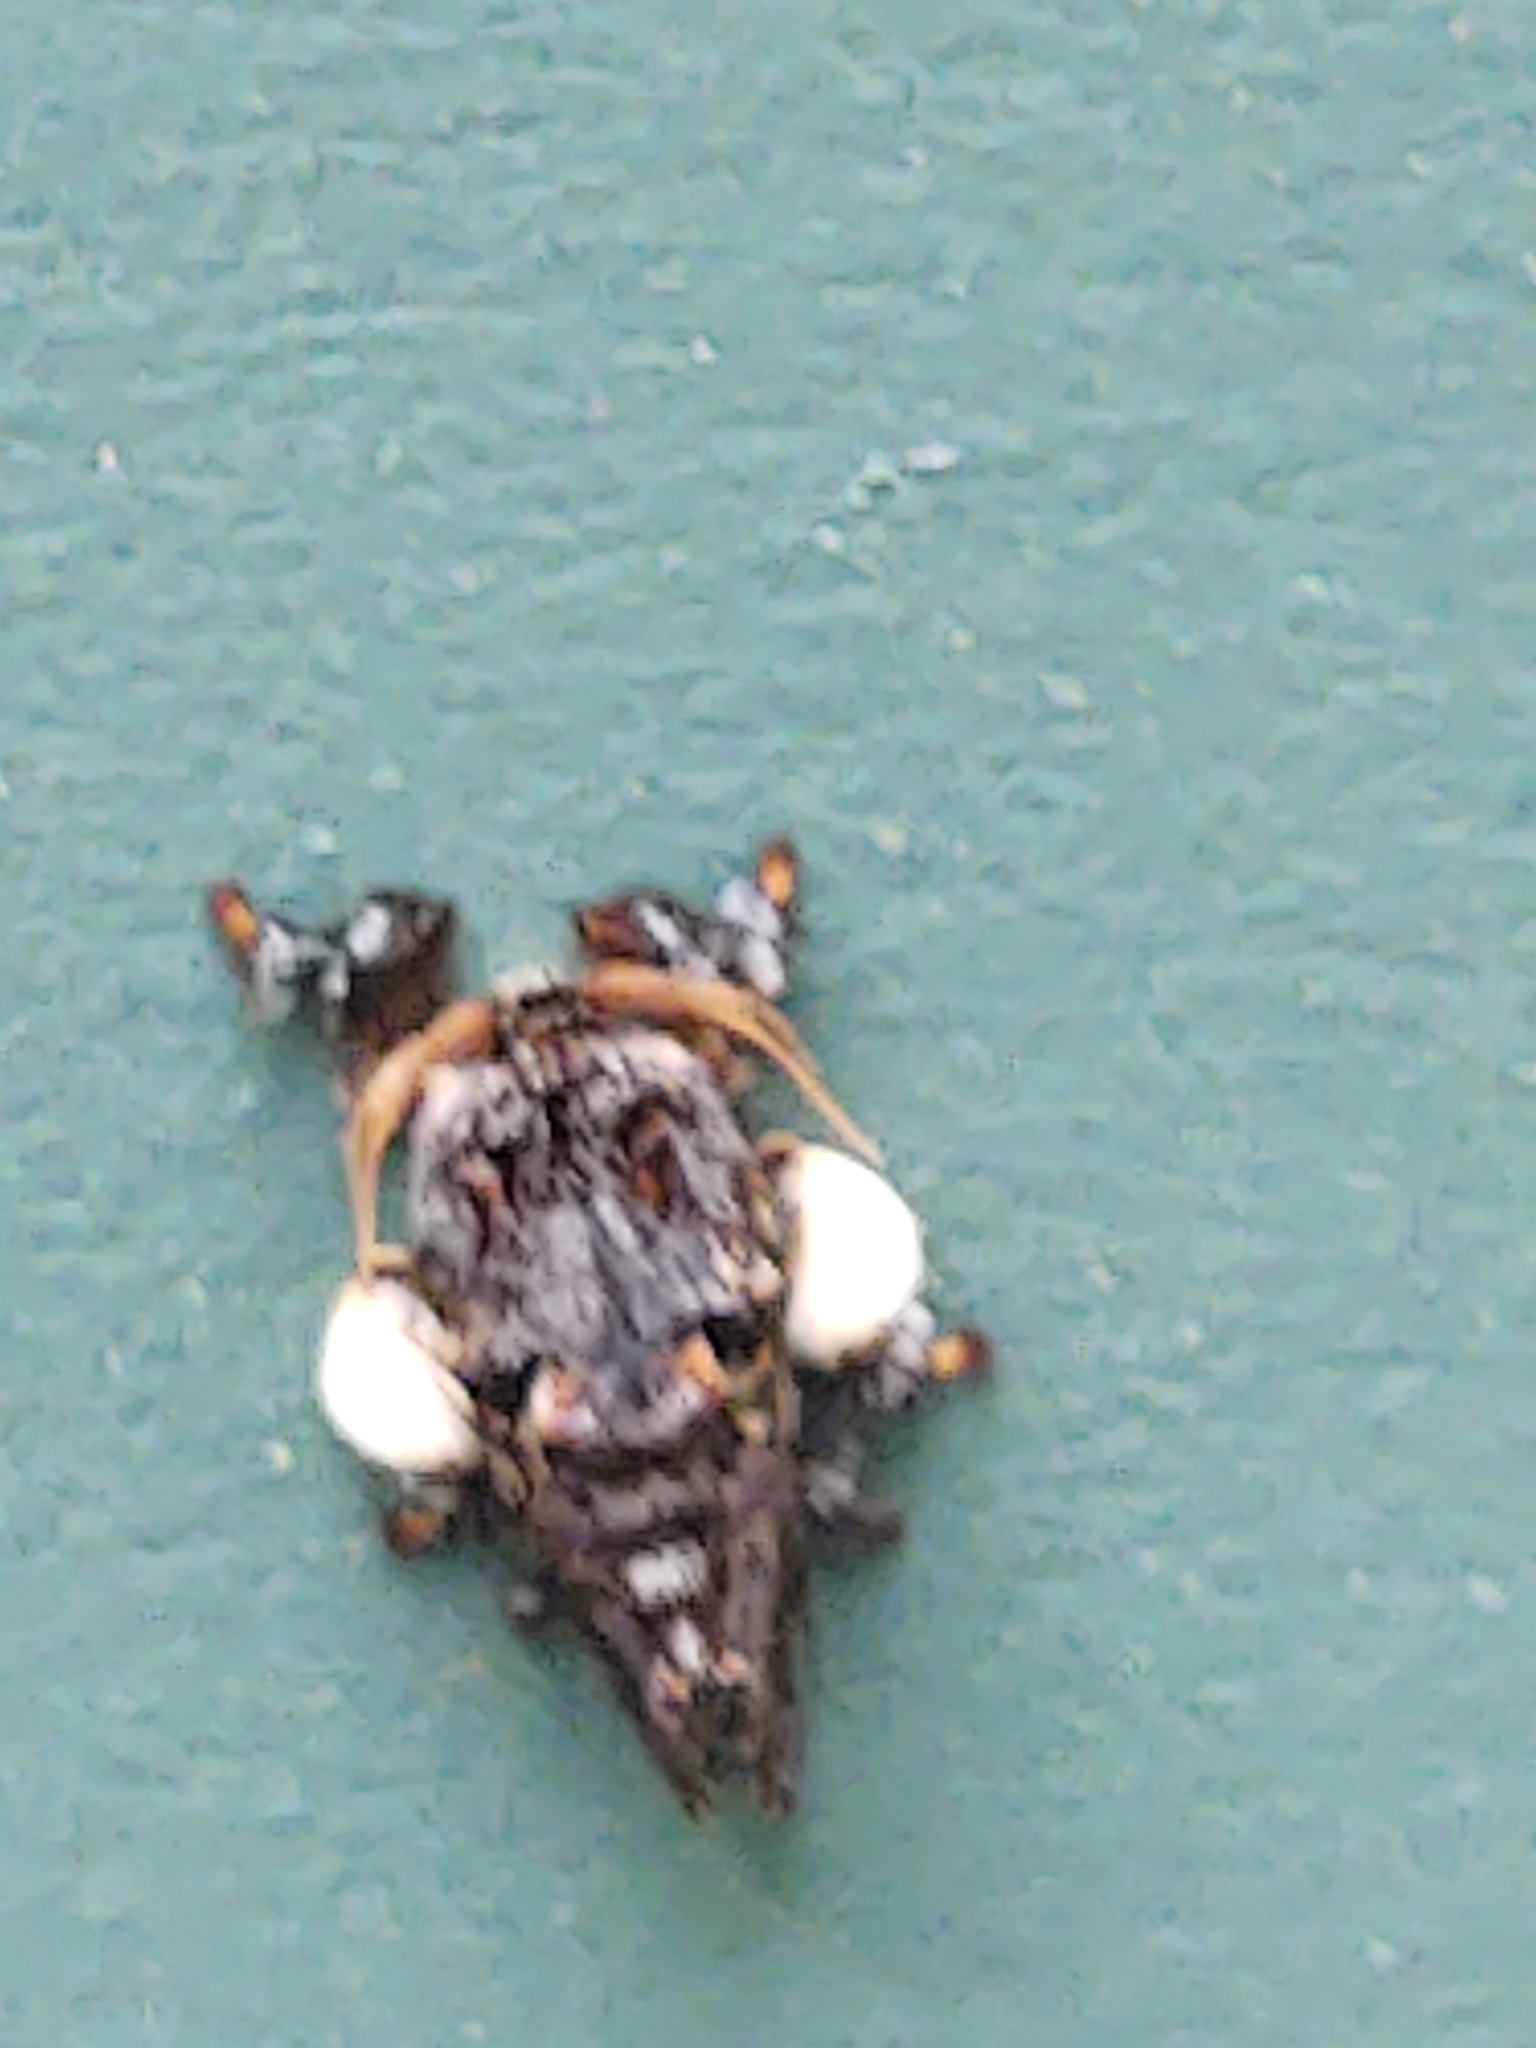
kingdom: Animalia
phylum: Arthropoda
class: Insecta
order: Lepidoptera
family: Limacodidae
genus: Phobetron
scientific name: Phobetron pithecium
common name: Hag moth
